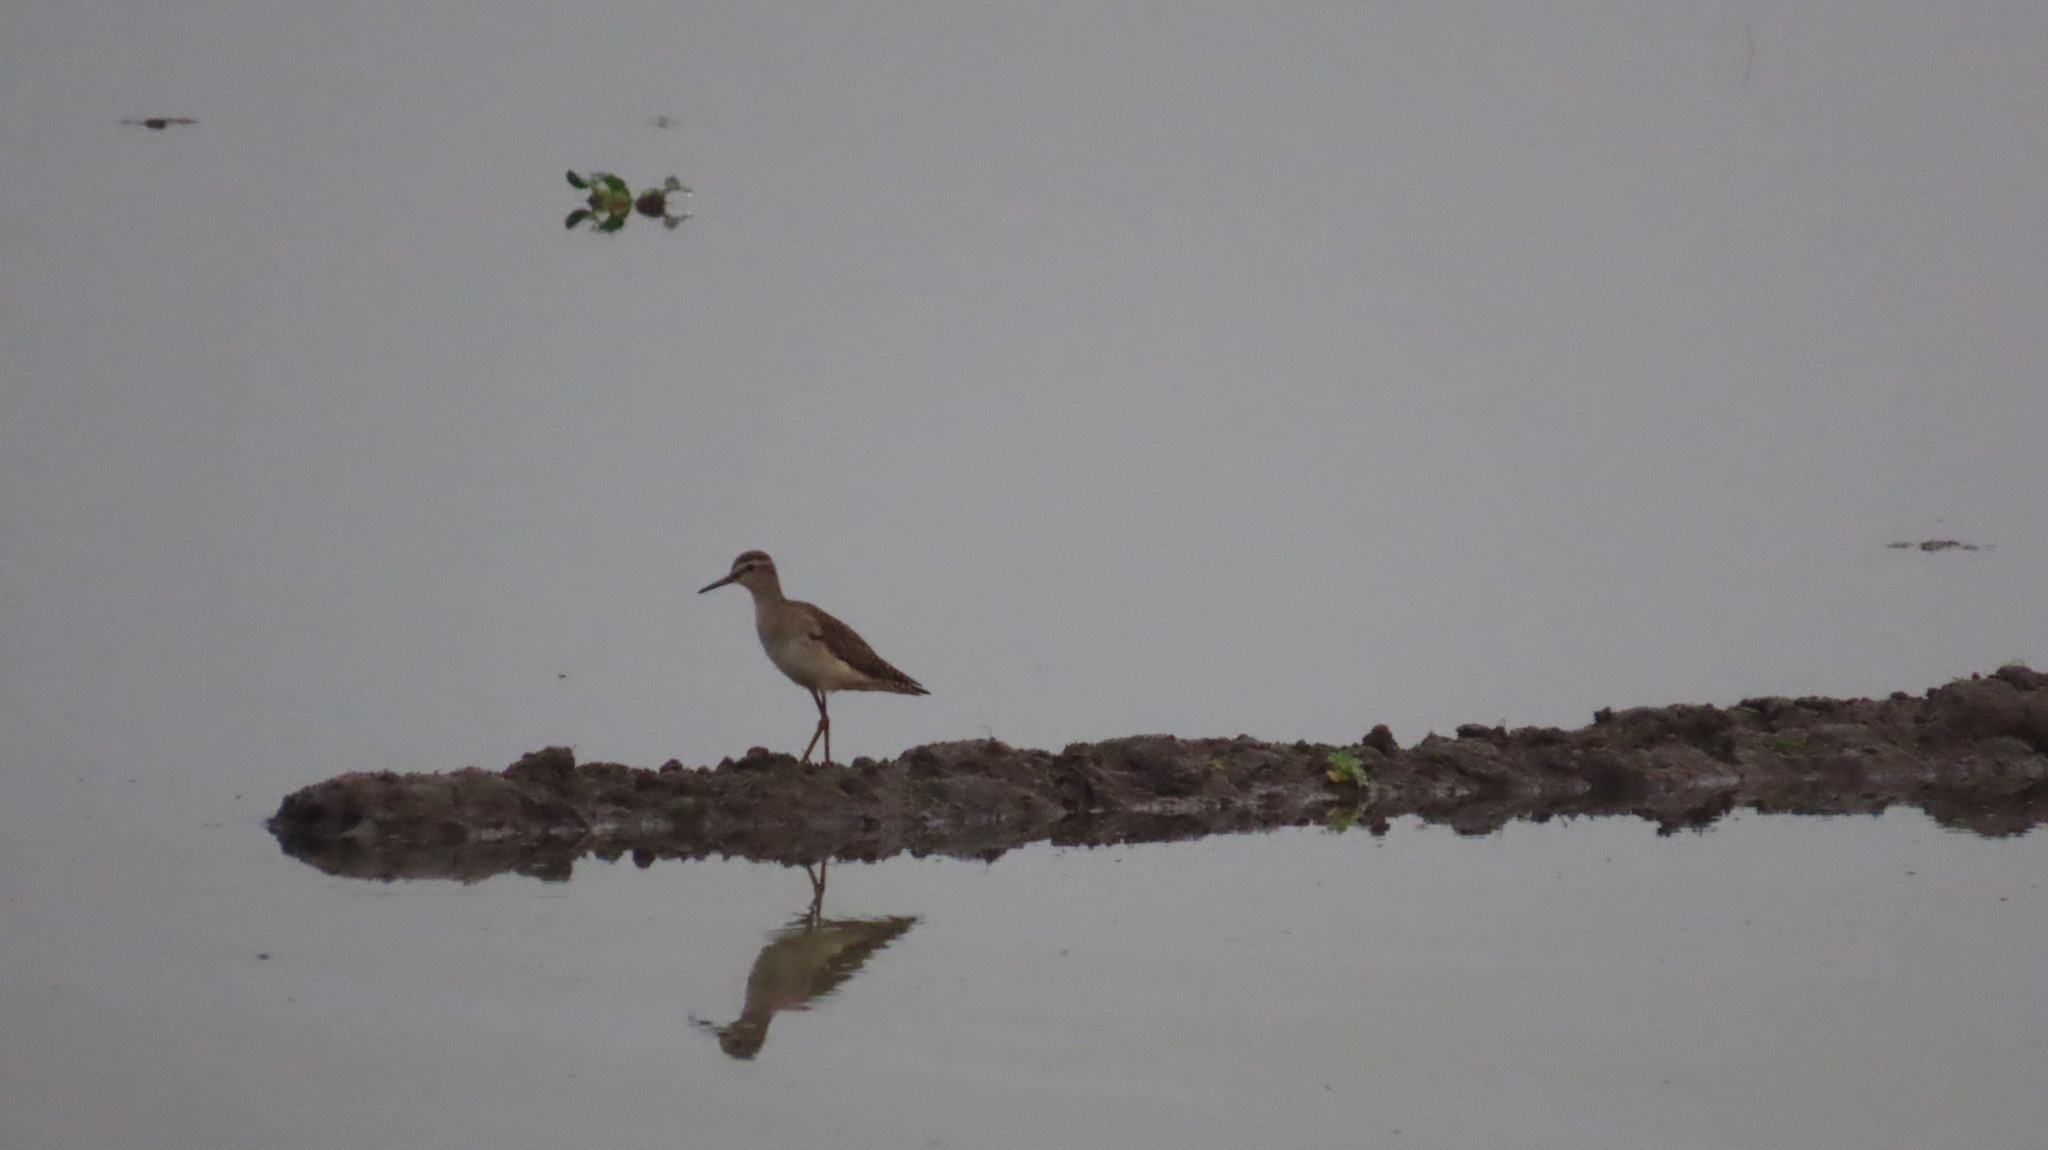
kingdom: Animalia
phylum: Chordata
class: Aves
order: Charadriiformes
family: Scolopacidae
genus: Tringa
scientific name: Tringa glareola
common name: Wood sandpiper
